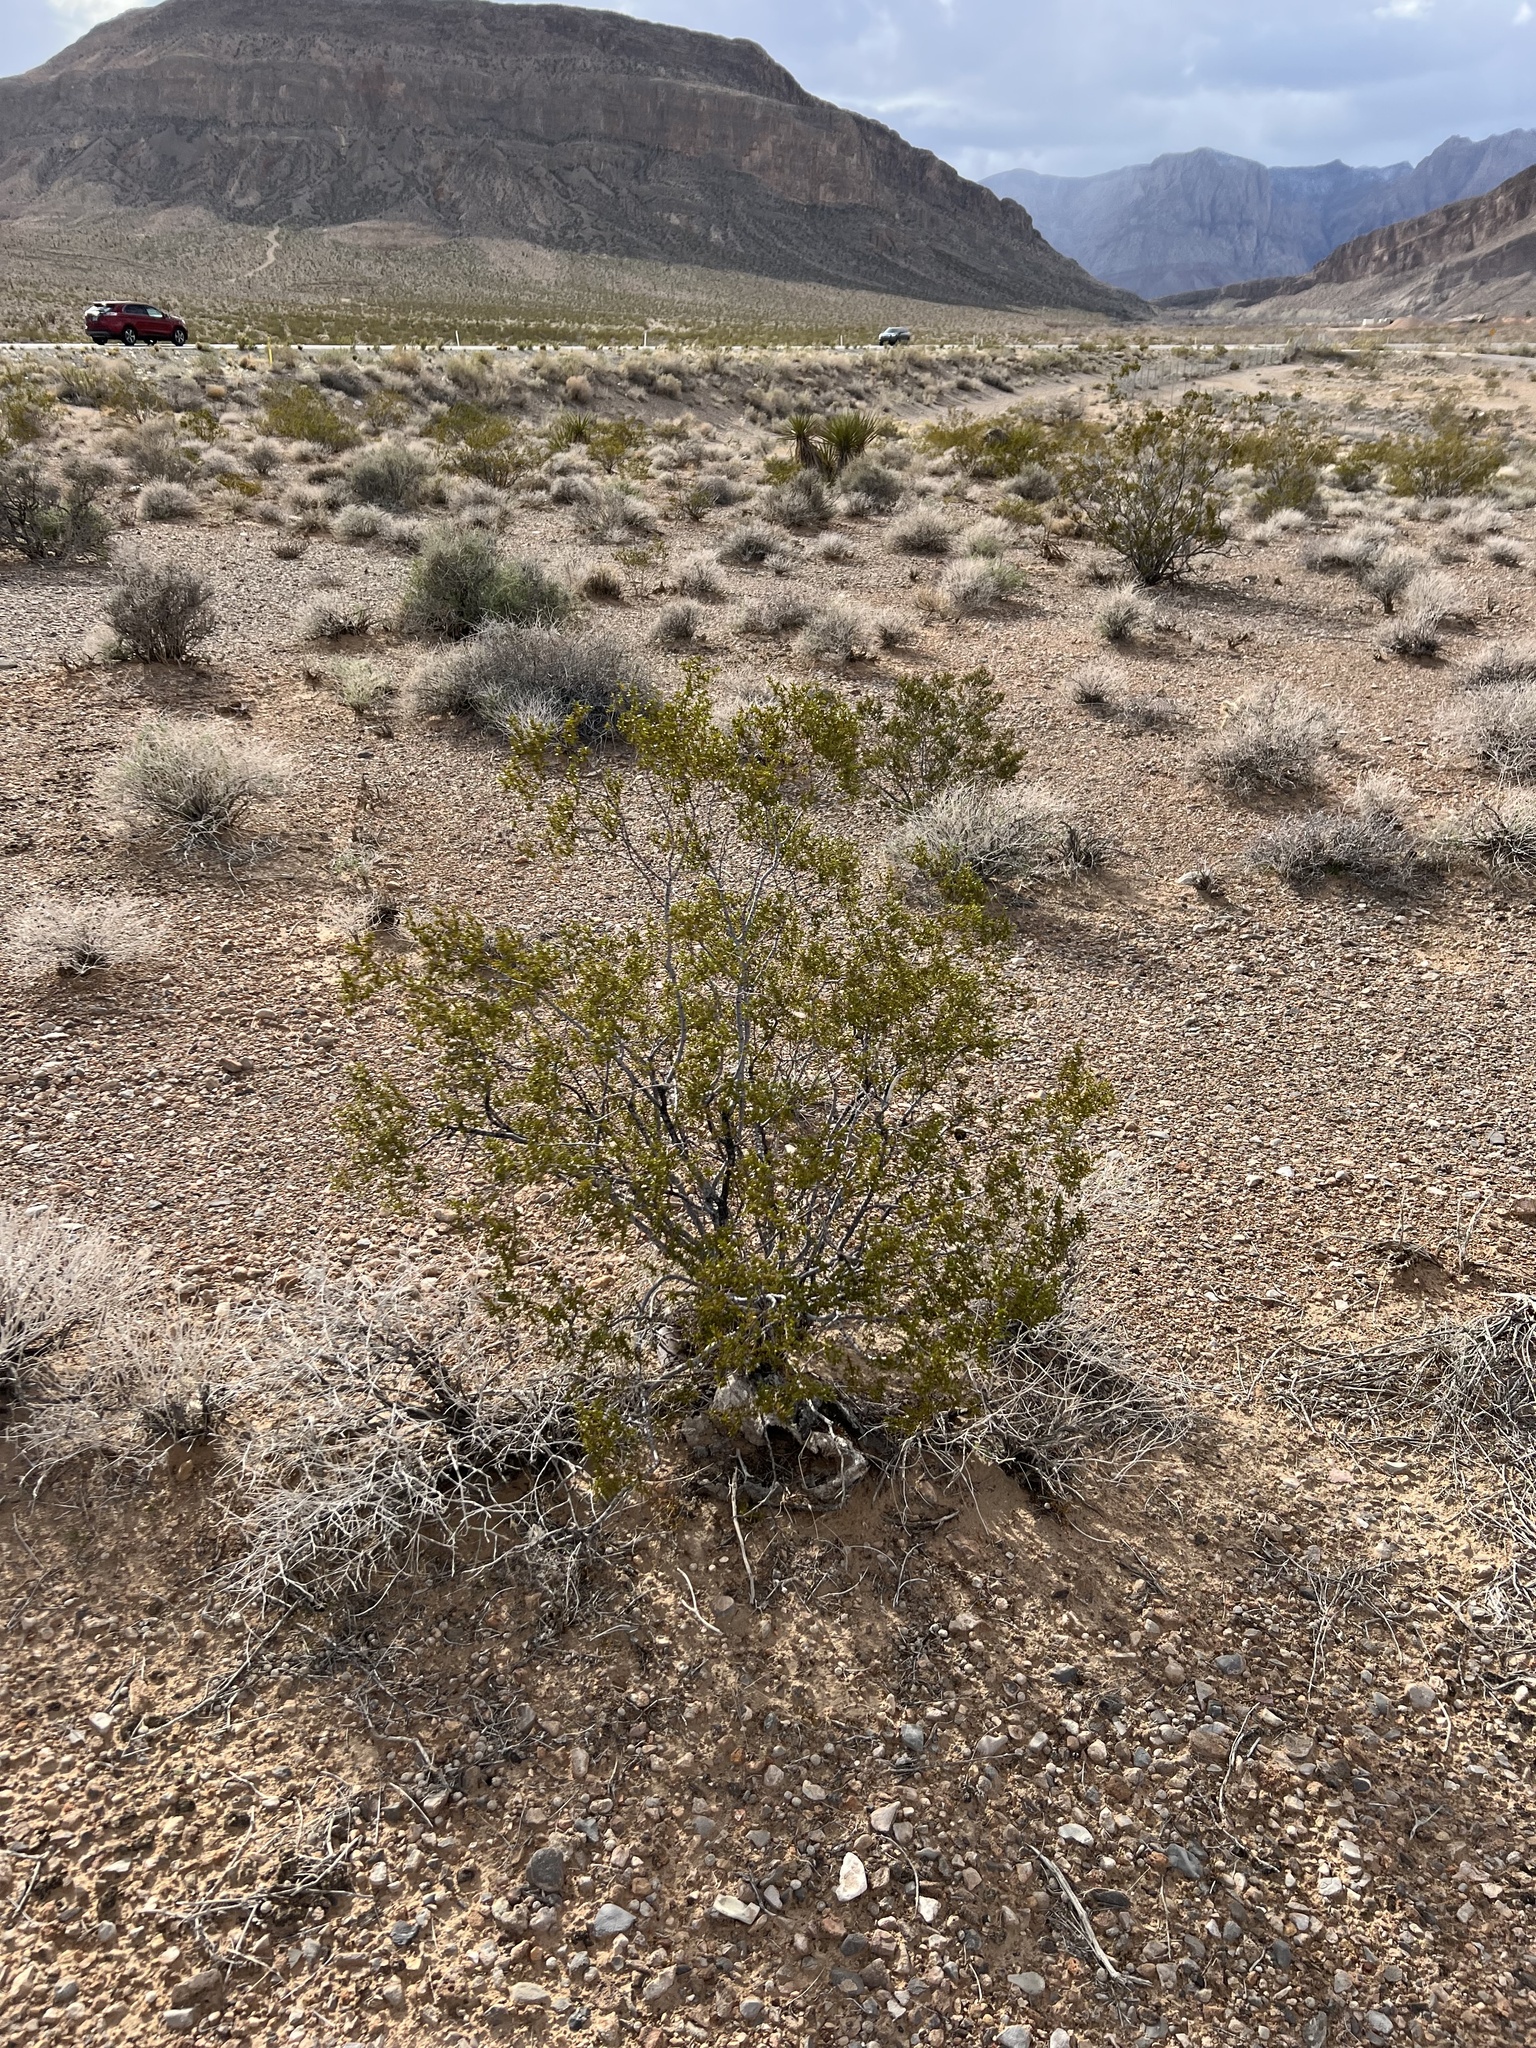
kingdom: Plantae
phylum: Tracheophyta
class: Magnoliopsida
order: Zygophyllales
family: Zygophyllaceae
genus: Larrea
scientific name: Larrea tridentata
